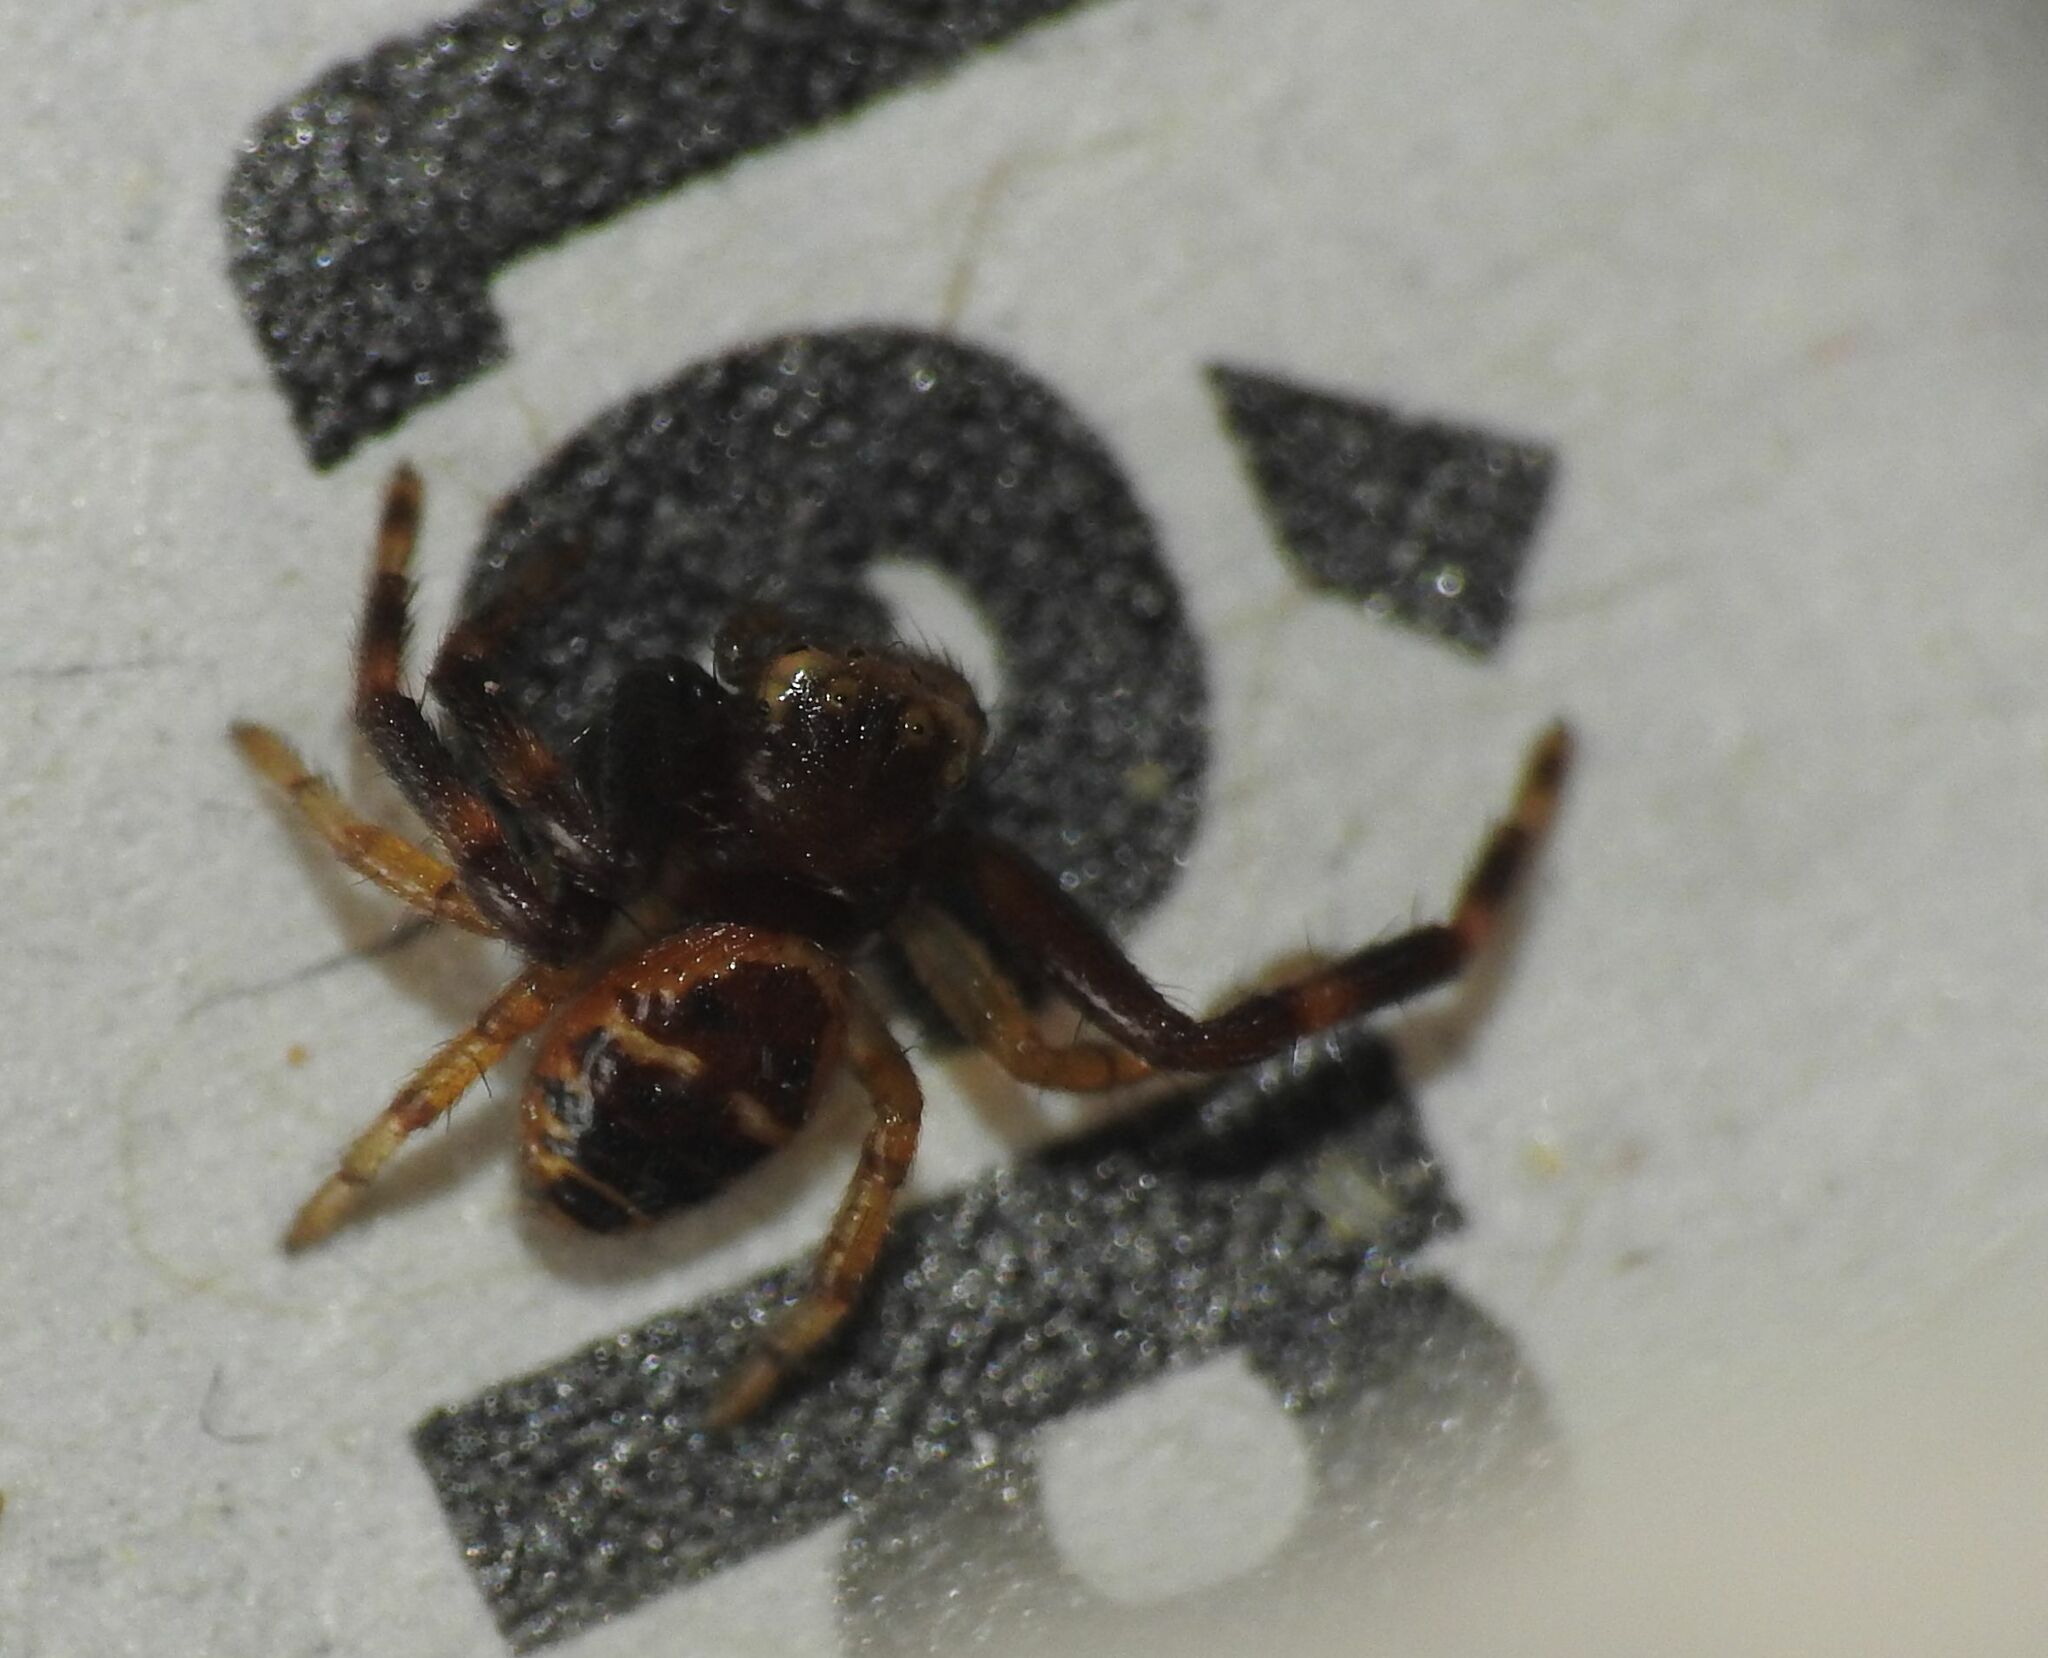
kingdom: Animalia
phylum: Arthropoda
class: Arachnida
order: Araneae
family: Thomisidae
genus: Synema
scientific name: Synema globosum
